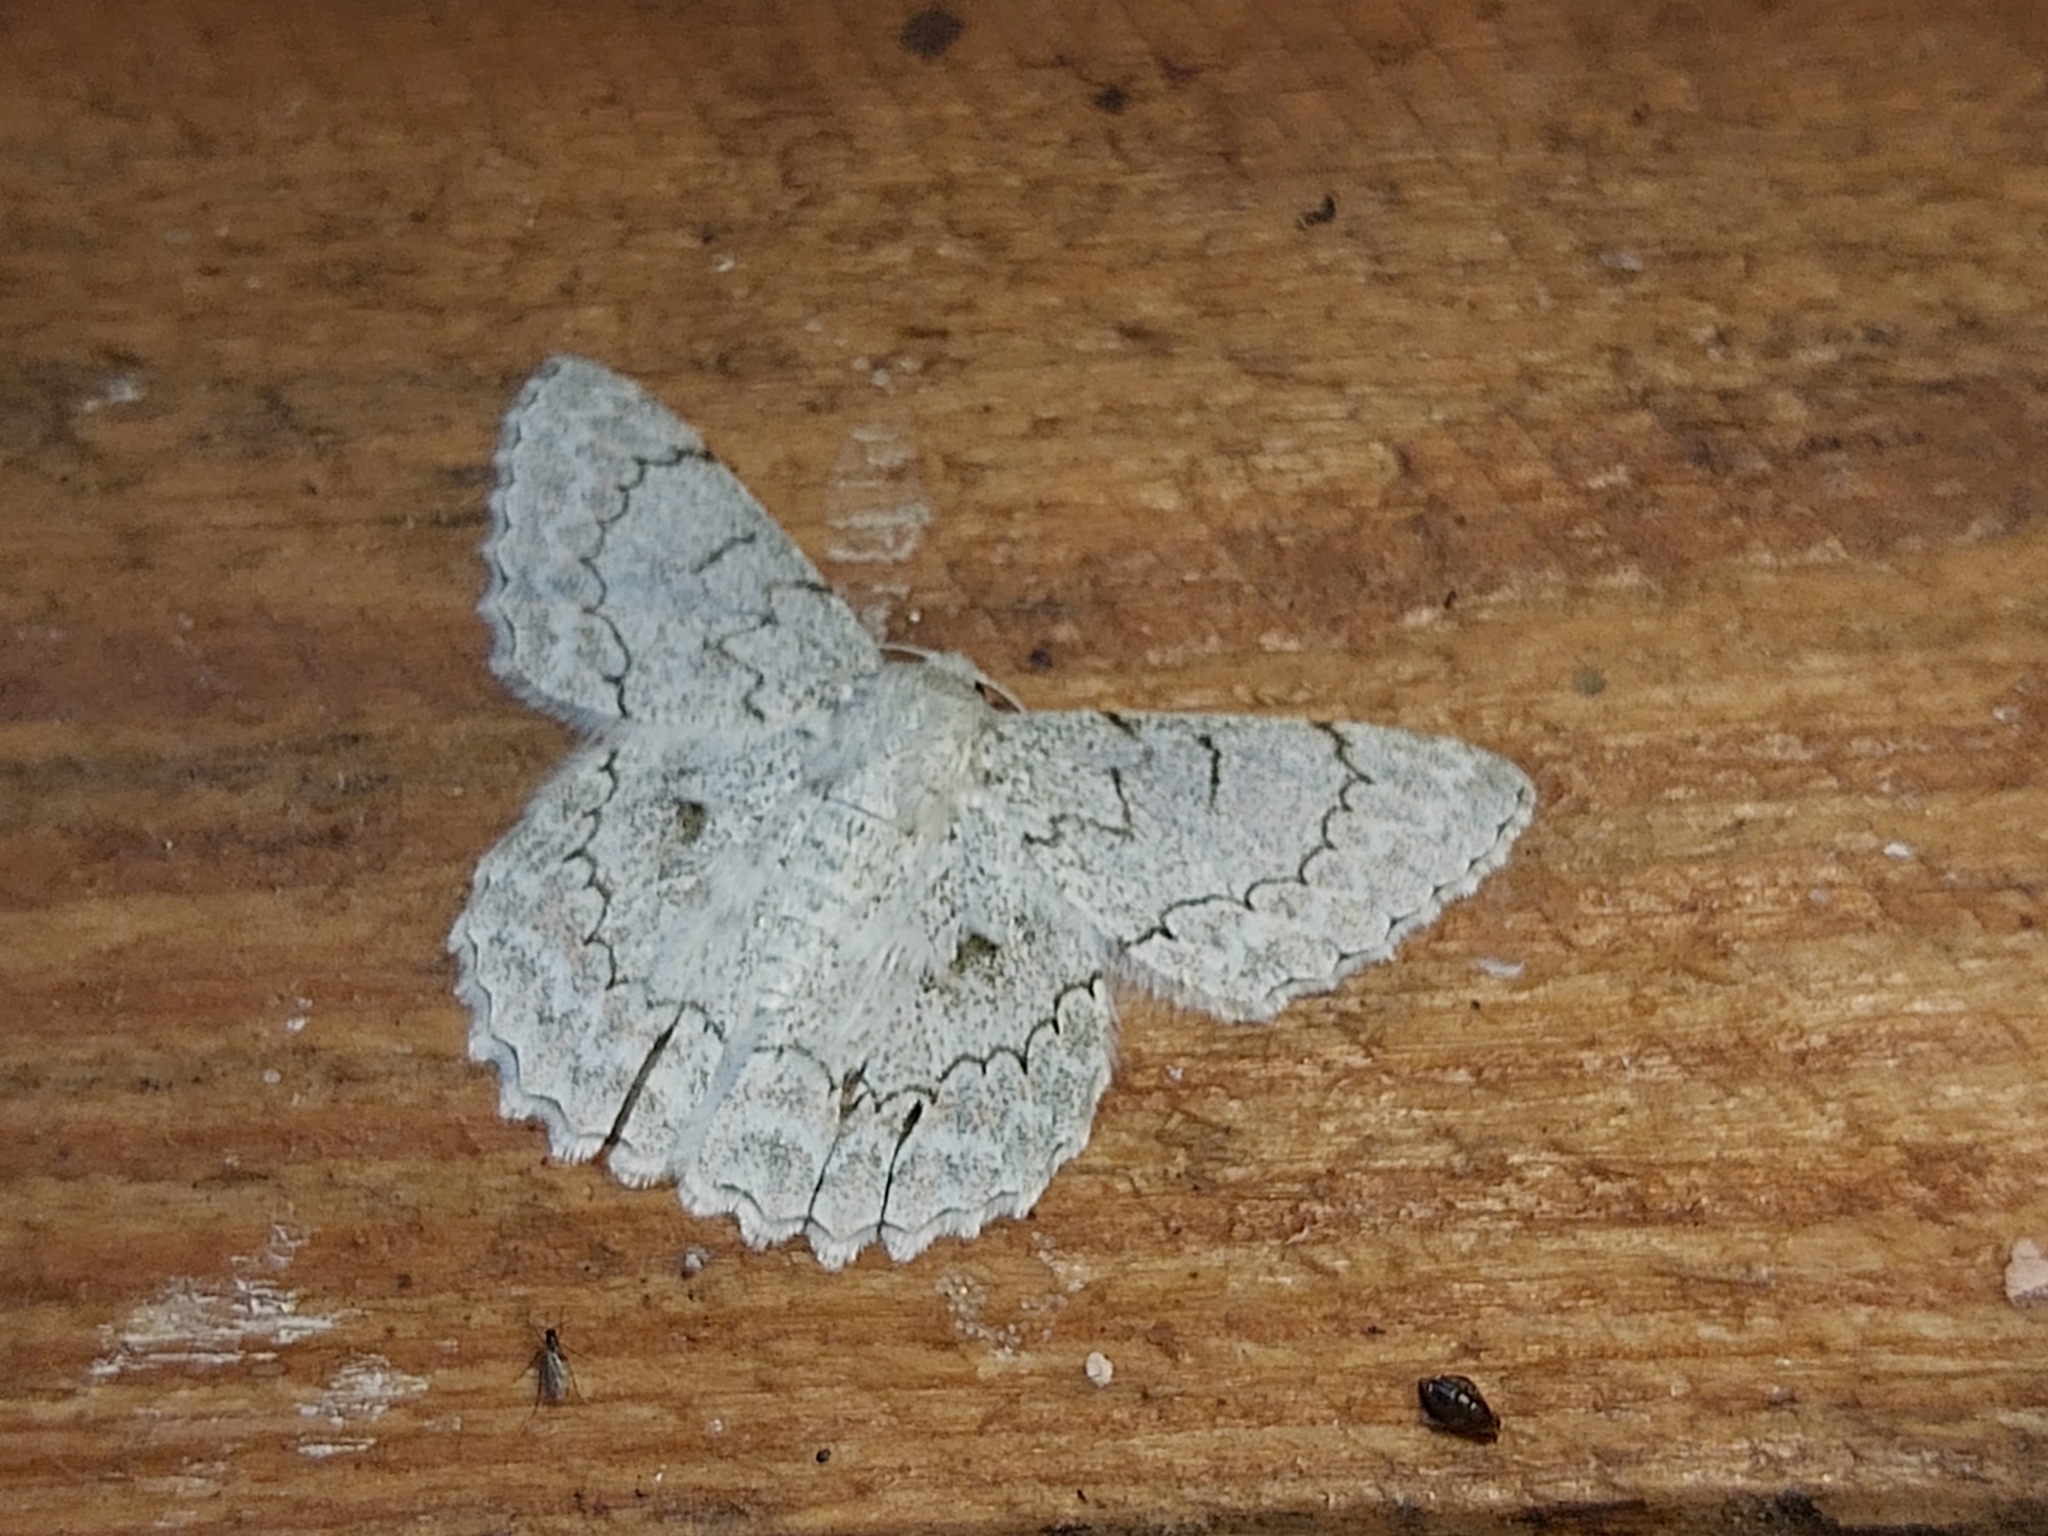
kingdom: Animalia
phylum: Arthropoda
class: Insecta
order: Lepidoptera
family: Geometridae
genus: Pingasa
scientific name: Pingasa chlora
